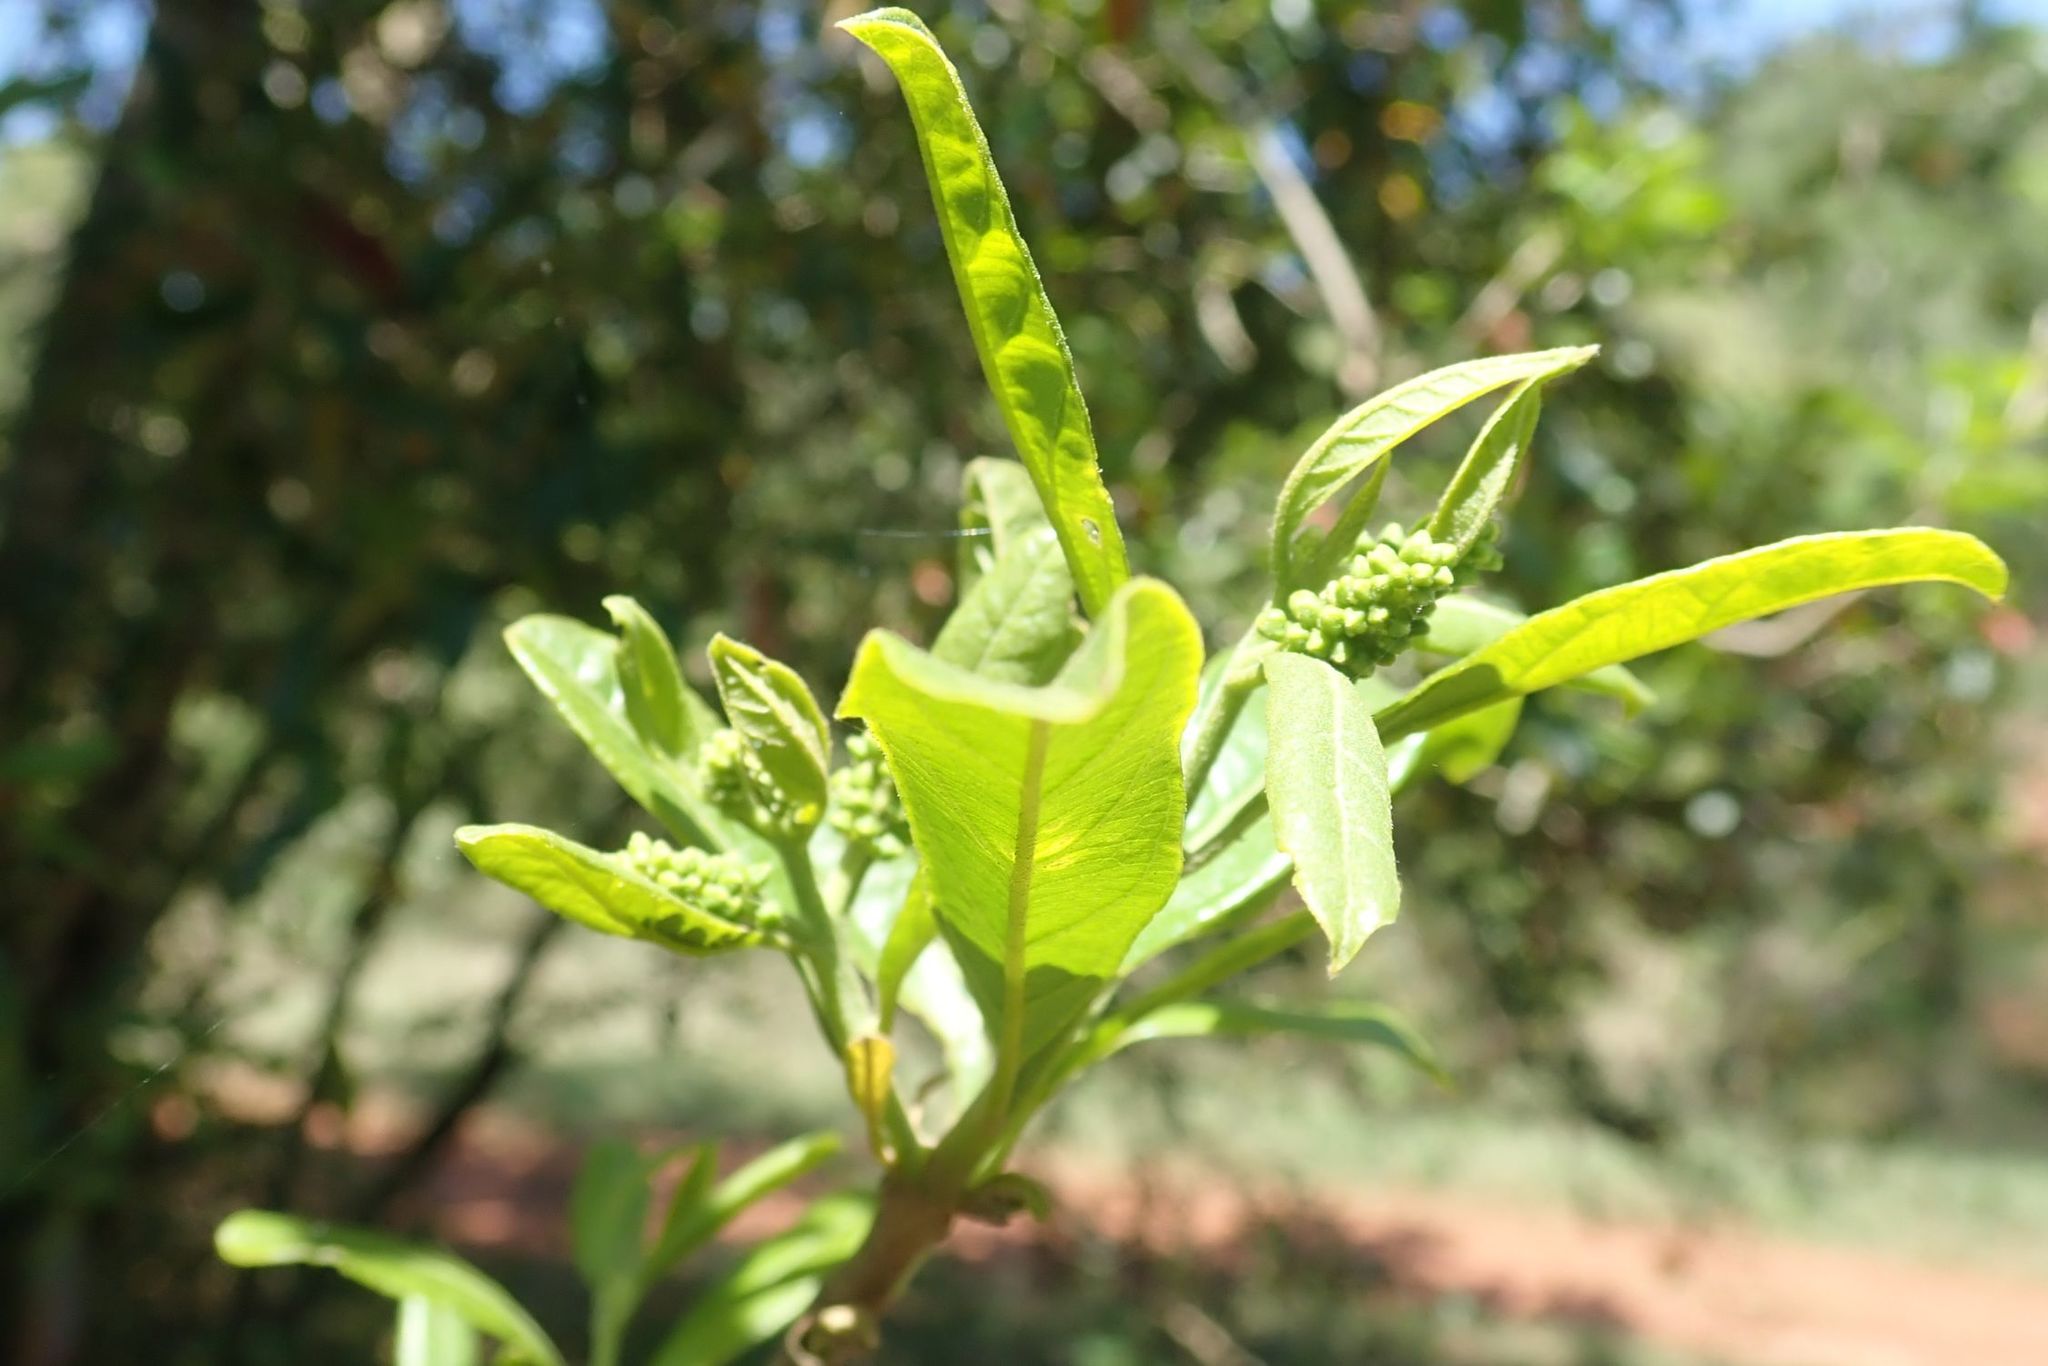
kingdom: Plantae
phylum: Tracheophyta
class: Magnoliopsida
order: Myrtales
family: Combretaceae
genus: Combretum
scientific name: Combretum kraussii
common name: Forest bushwillow
